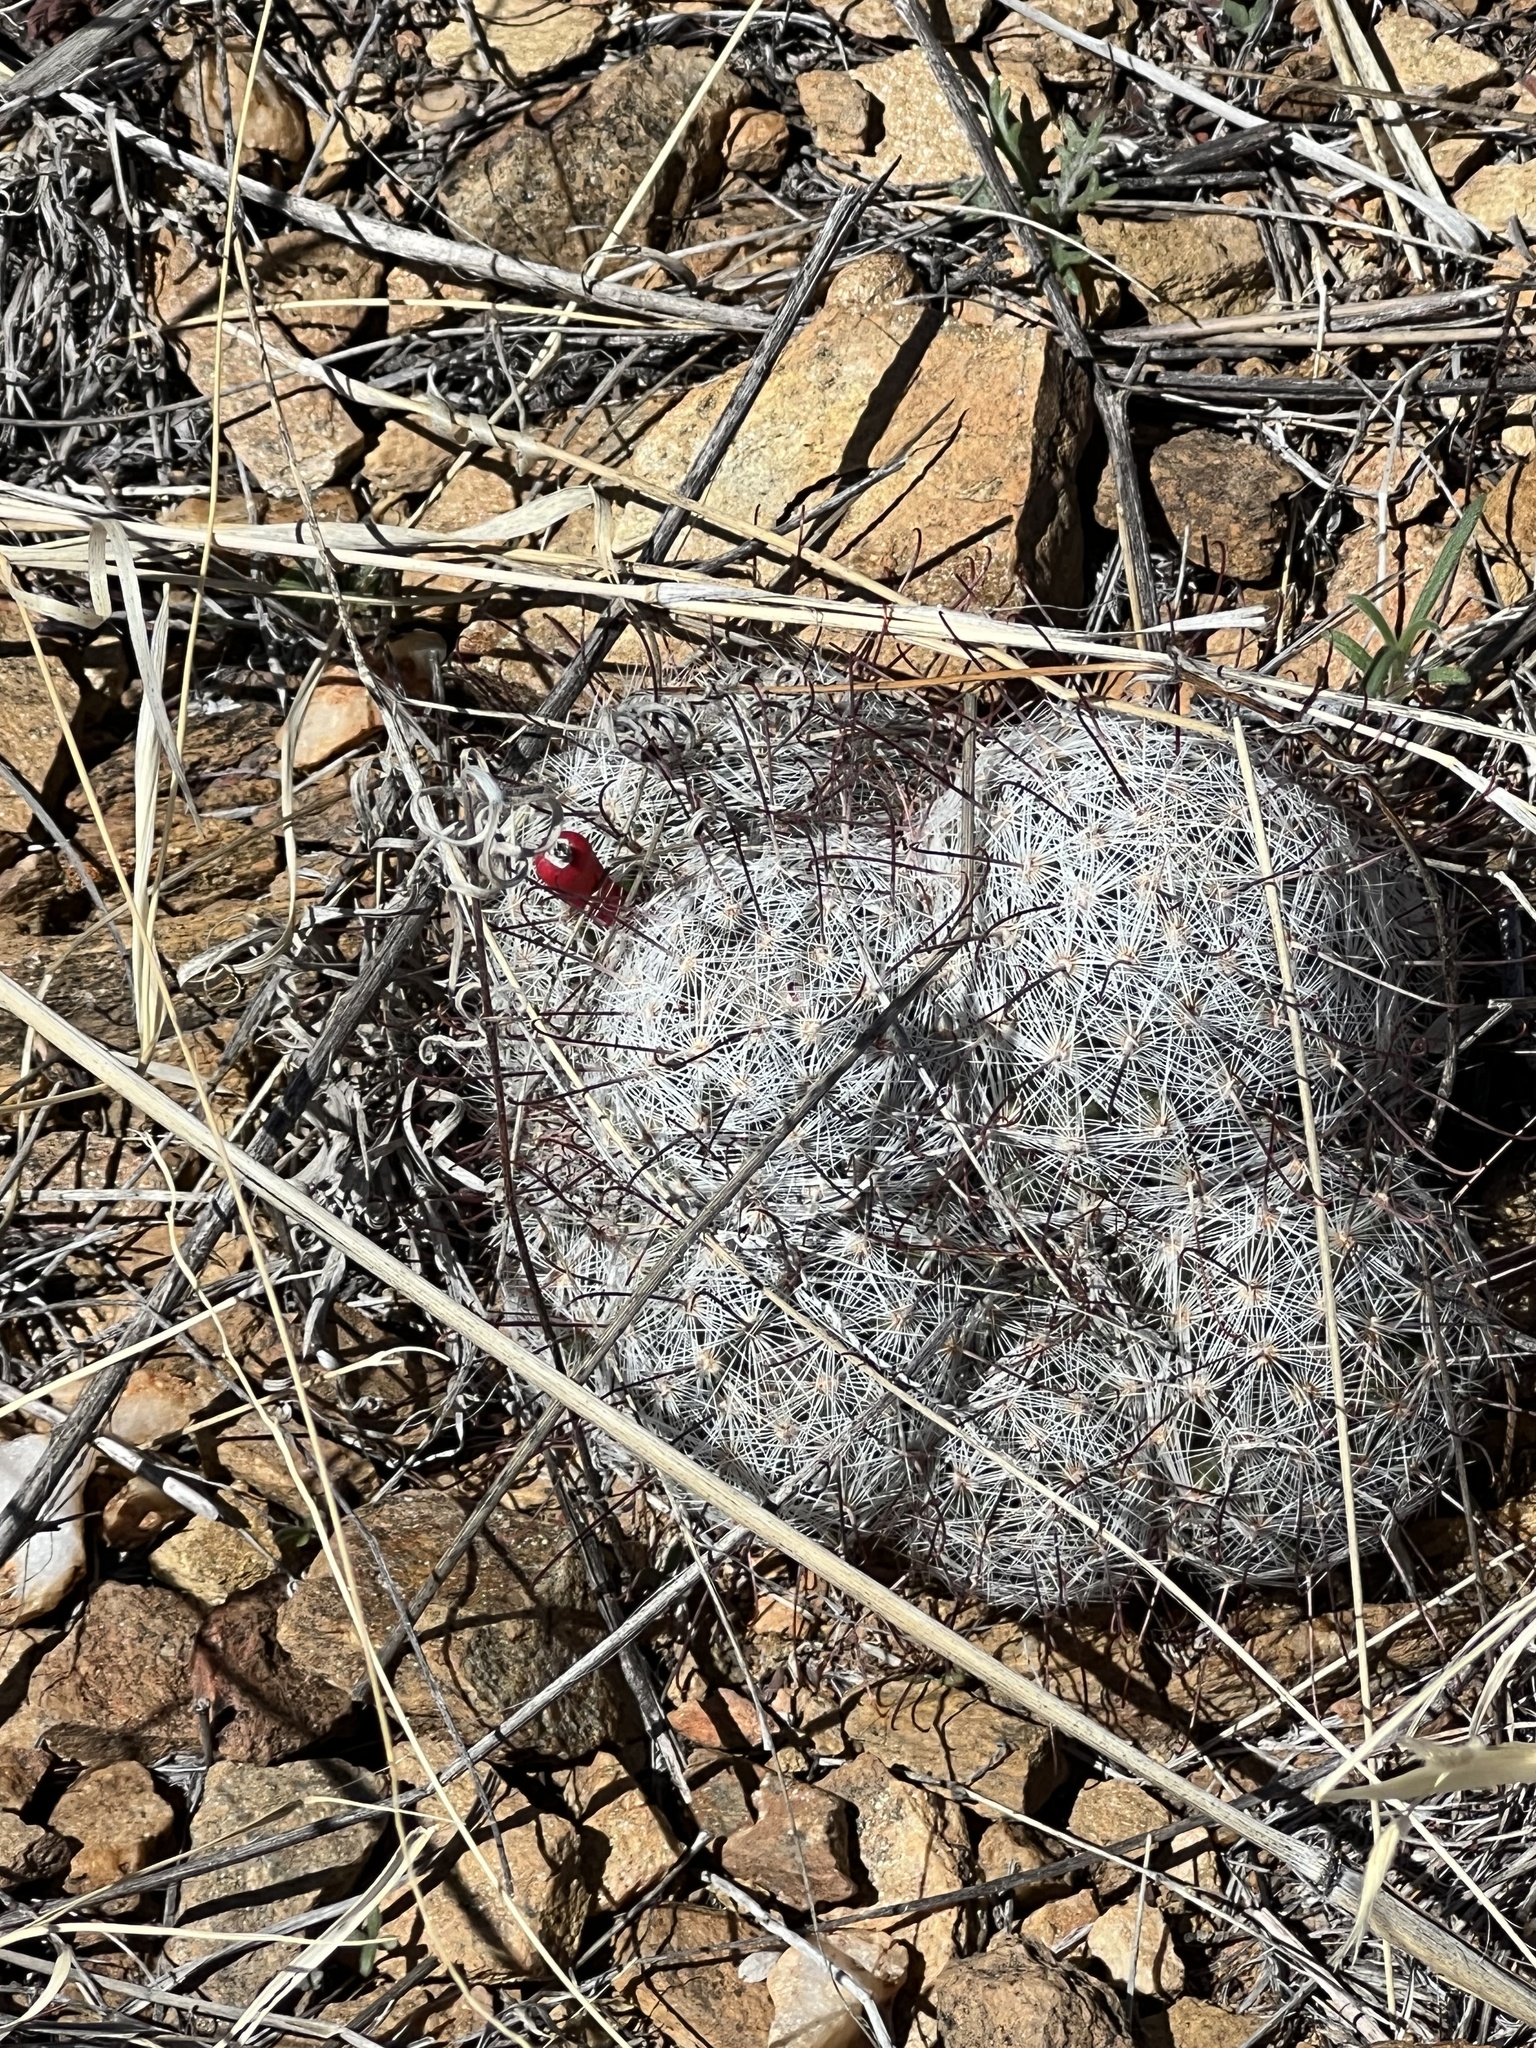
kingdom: Plantae
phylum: Tracheophyta
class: Magnoliopsida
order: Caryophyllales
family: Cactaceae
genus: Cochemiea
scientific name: Cochemiea grahamii
